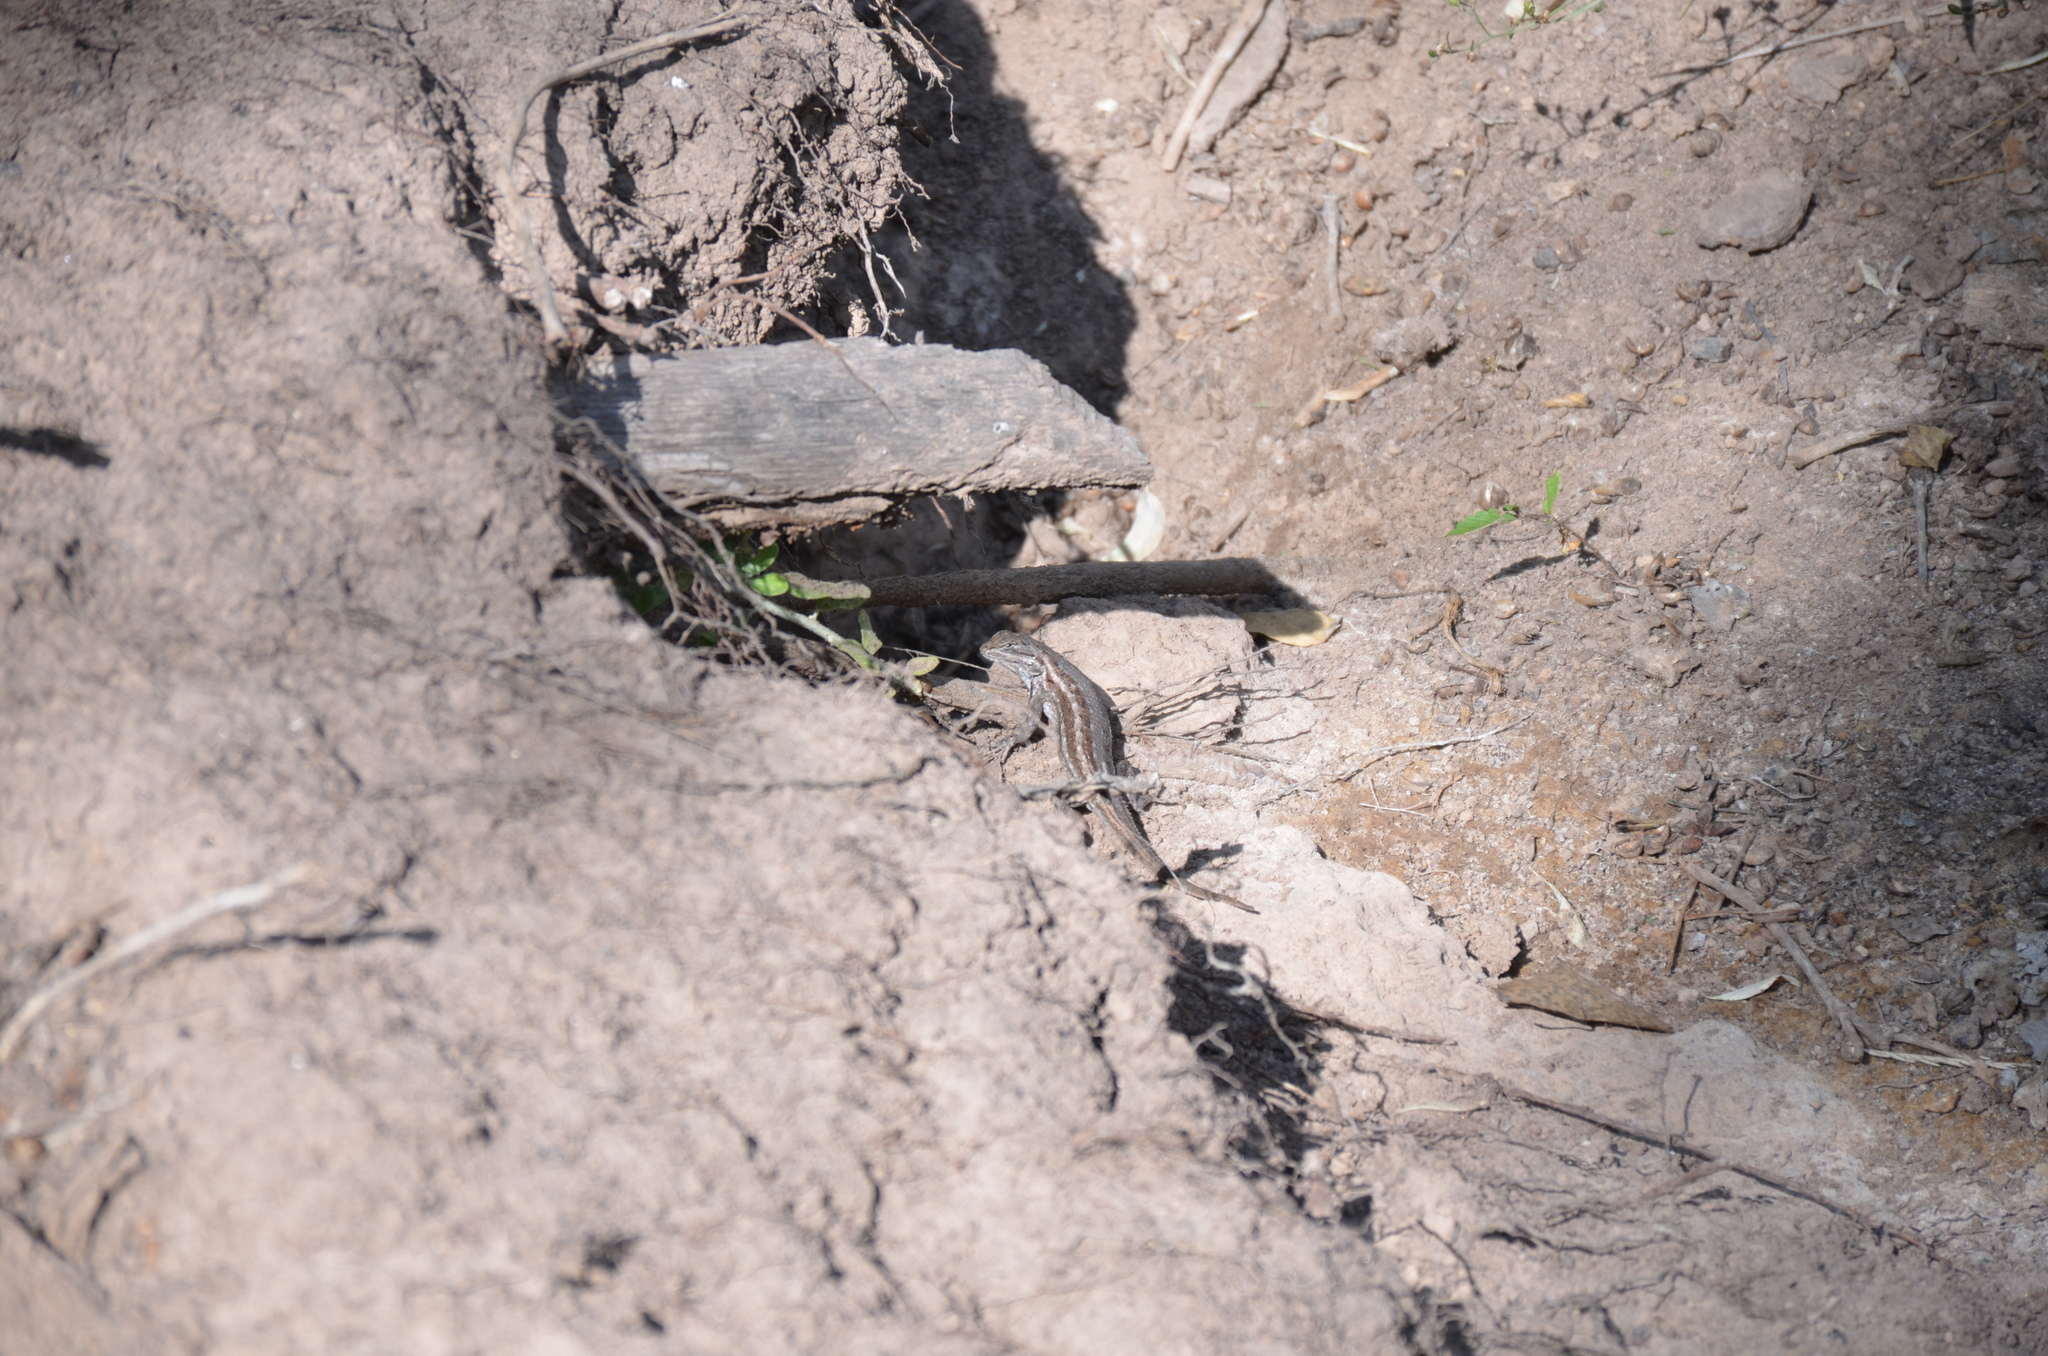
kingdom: Animalia
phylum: Chordata
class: Squamata
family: Phrynosomatidae
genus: Sceloporus
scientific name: Sceloporus cowlesi
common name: White sands prairie lizard
